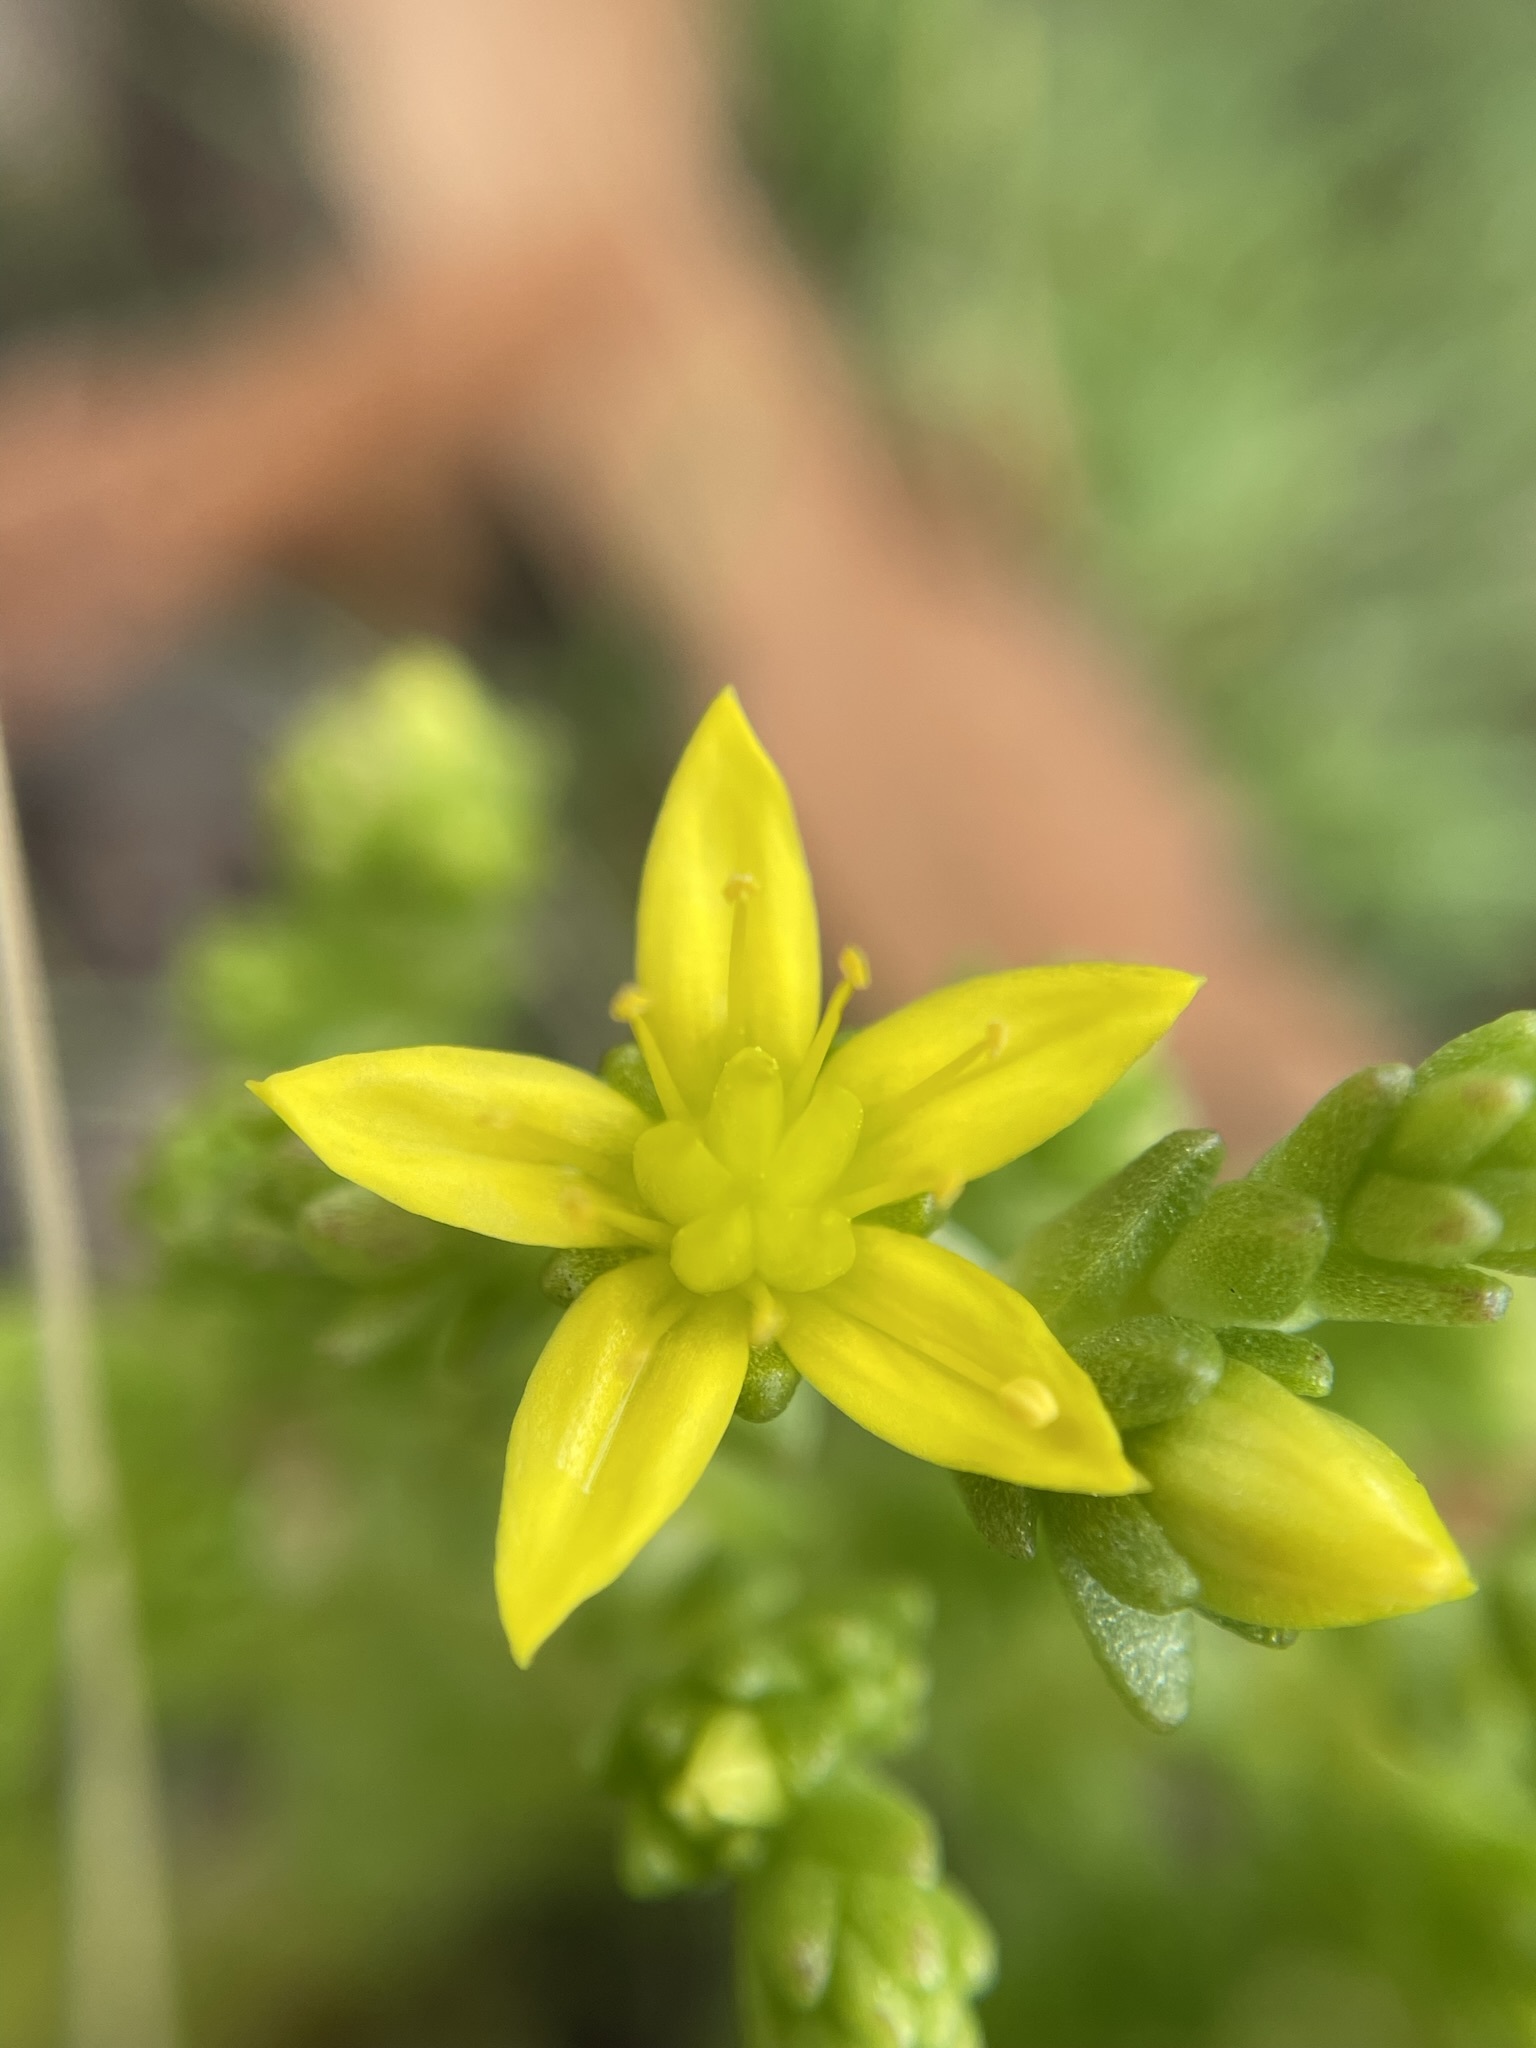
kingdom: Plantae
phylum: Tracheophyta
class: Magnoliopsida
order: Saxifragales
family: Crassulaceae
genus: Sedum
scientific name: Sedum acre
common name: Biting stonecrop
